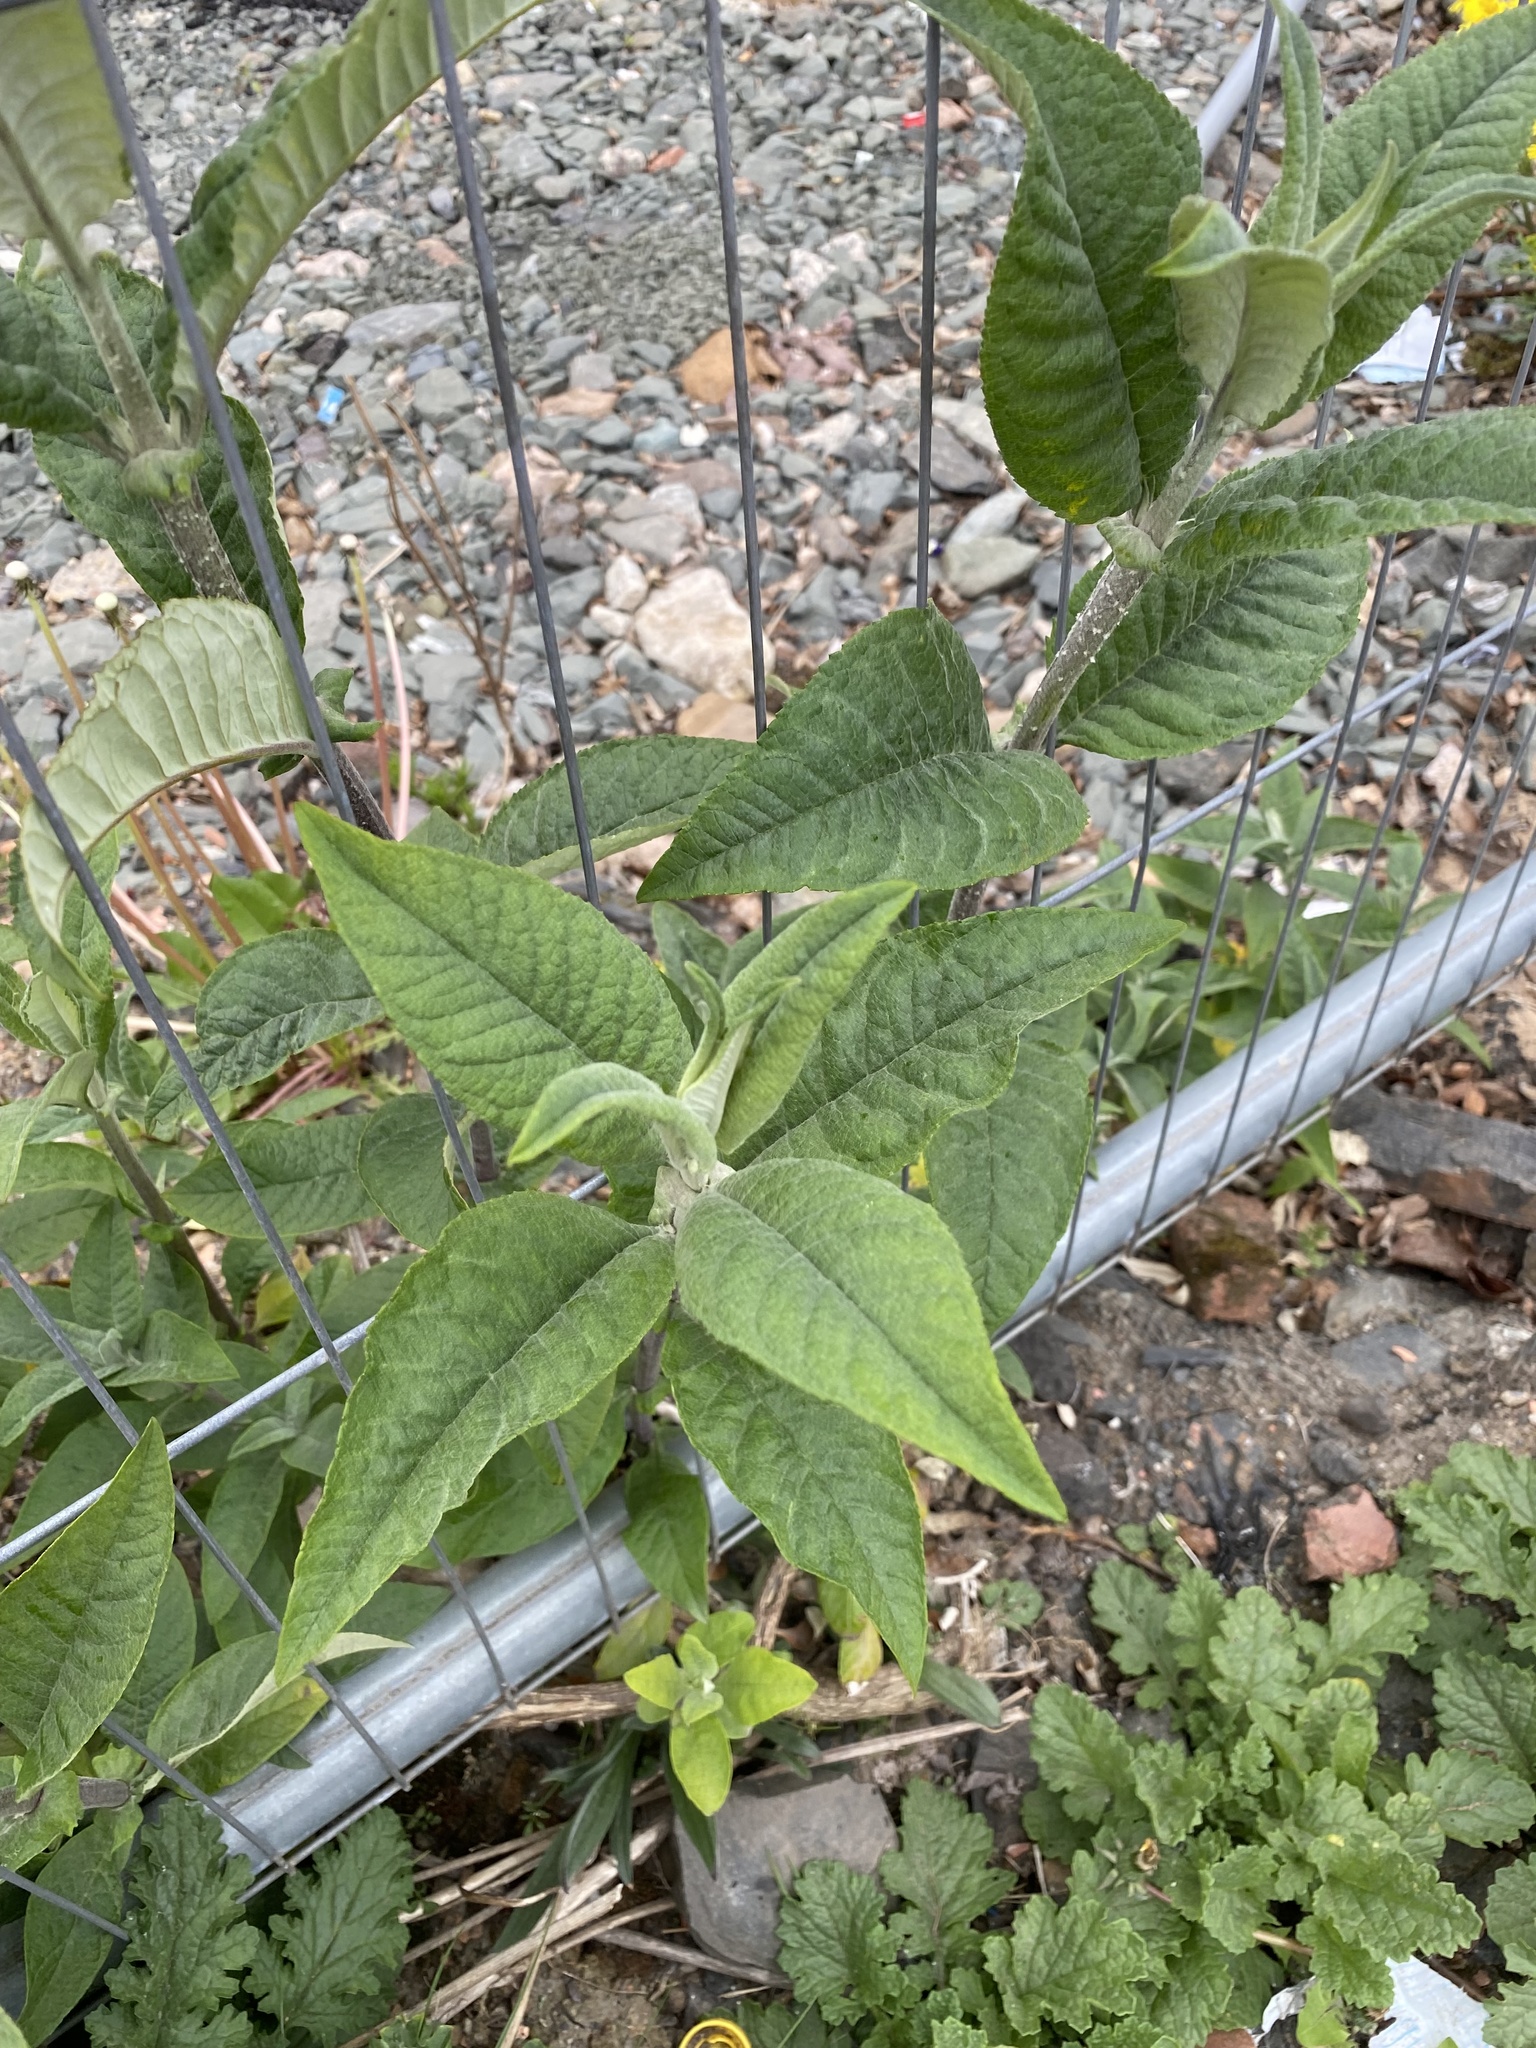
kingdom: Plantae
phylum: Tracheophyta
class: Magnoliopsida
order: Lamiales
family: Scrophulariaceae
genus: Buddleja
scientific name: Buddleja davidii
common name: Butterfly-bush
